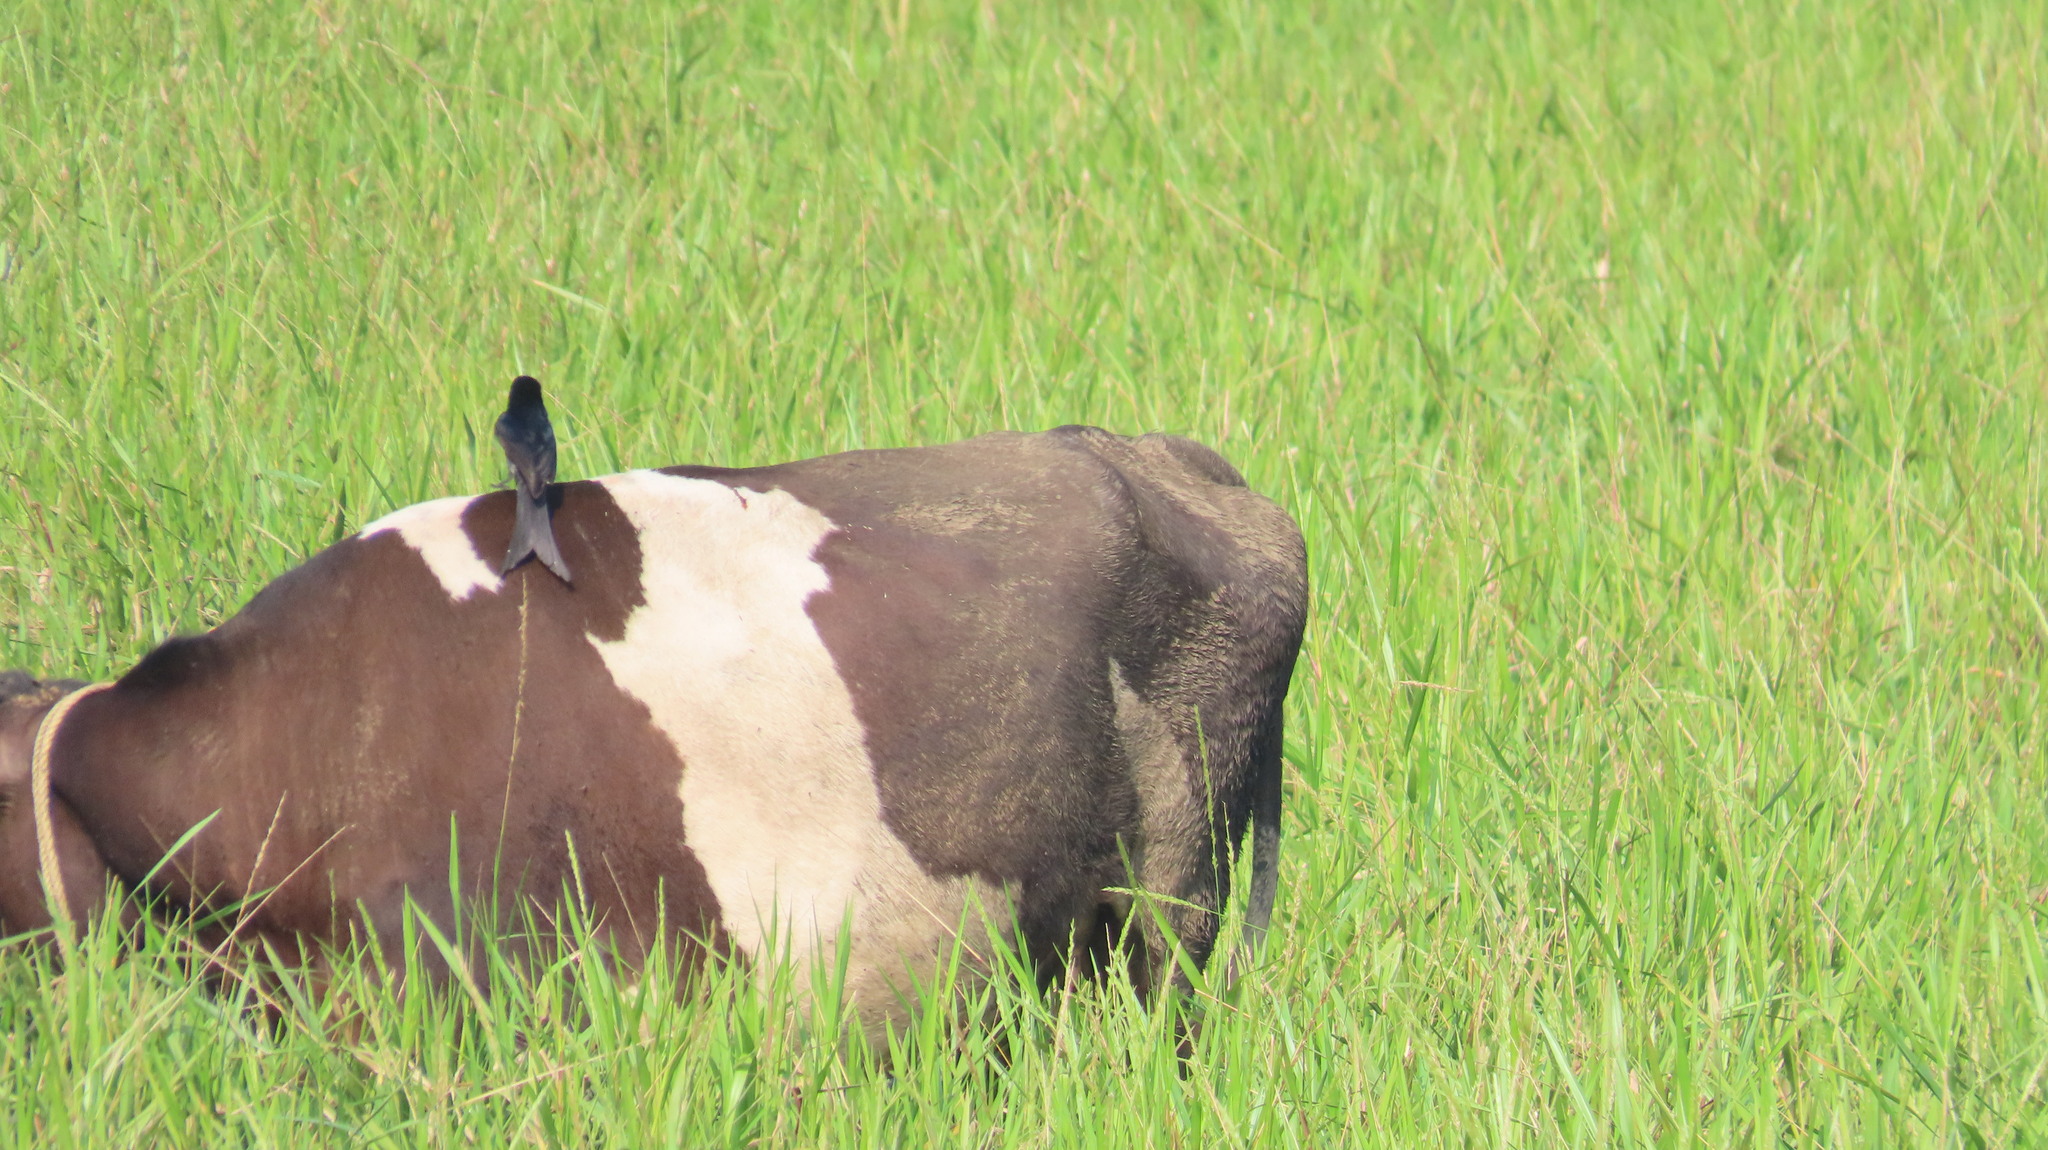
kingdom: Animalia
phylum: Chordata
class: Aves
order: Passeriformes
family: Dicruridae
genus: Dicrurus
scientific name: Dicrurus macrocercus
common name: Black drongo
